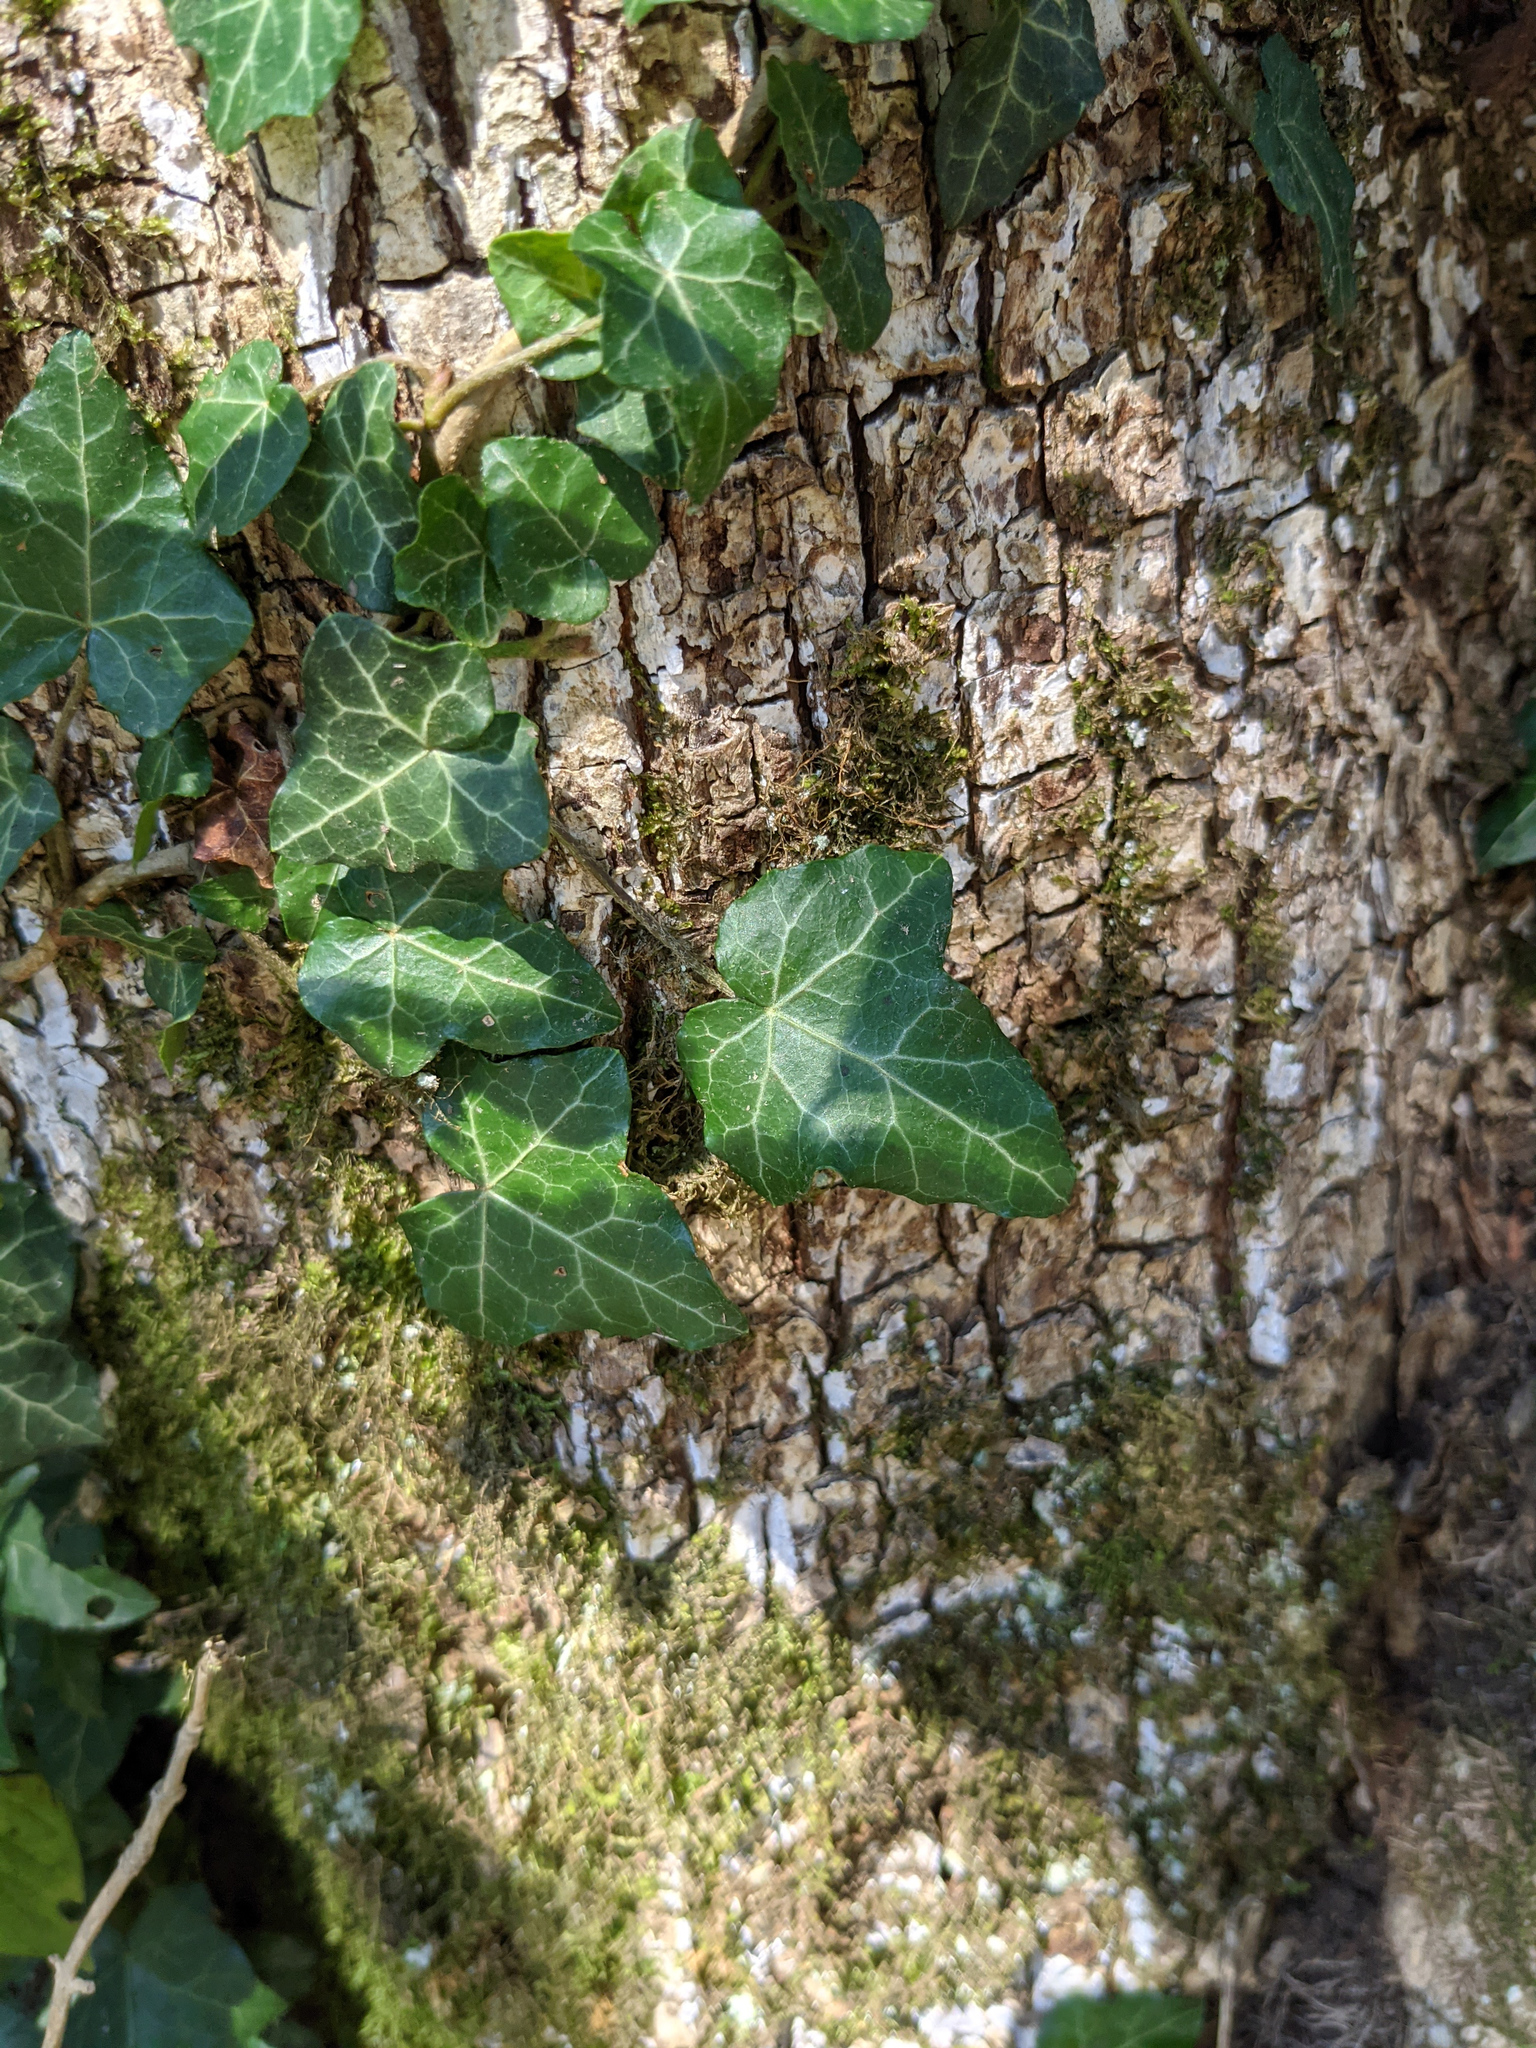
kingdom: Plantae
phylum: Tracheophyta
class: Magnoliopsida
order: Apiales
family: Araliaceae
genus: Hedera
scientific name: Hedera helix
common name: Ivy
